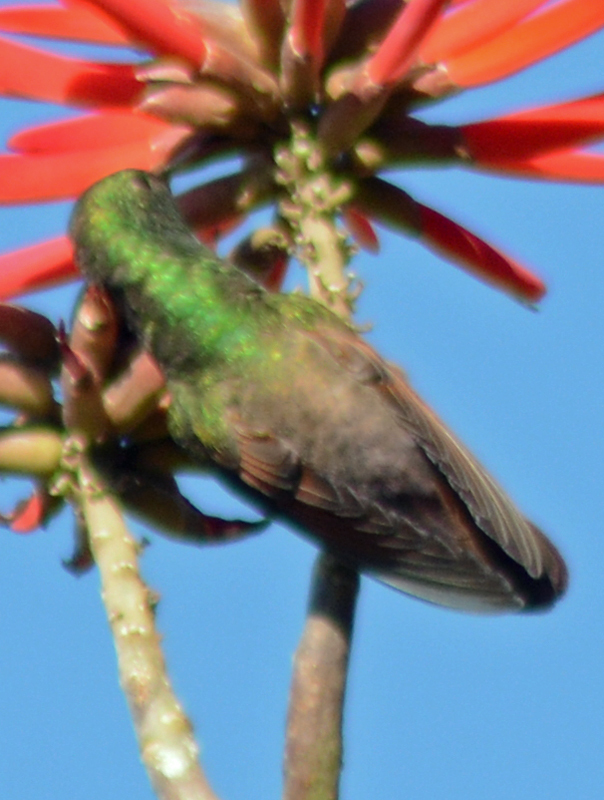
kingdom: Animalia
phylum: Chordata
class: Aves
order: Apodiformes
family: Trochilidae
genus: Saucerottia
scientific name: Saucerottia beryllina
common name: Berylline hummingbird
